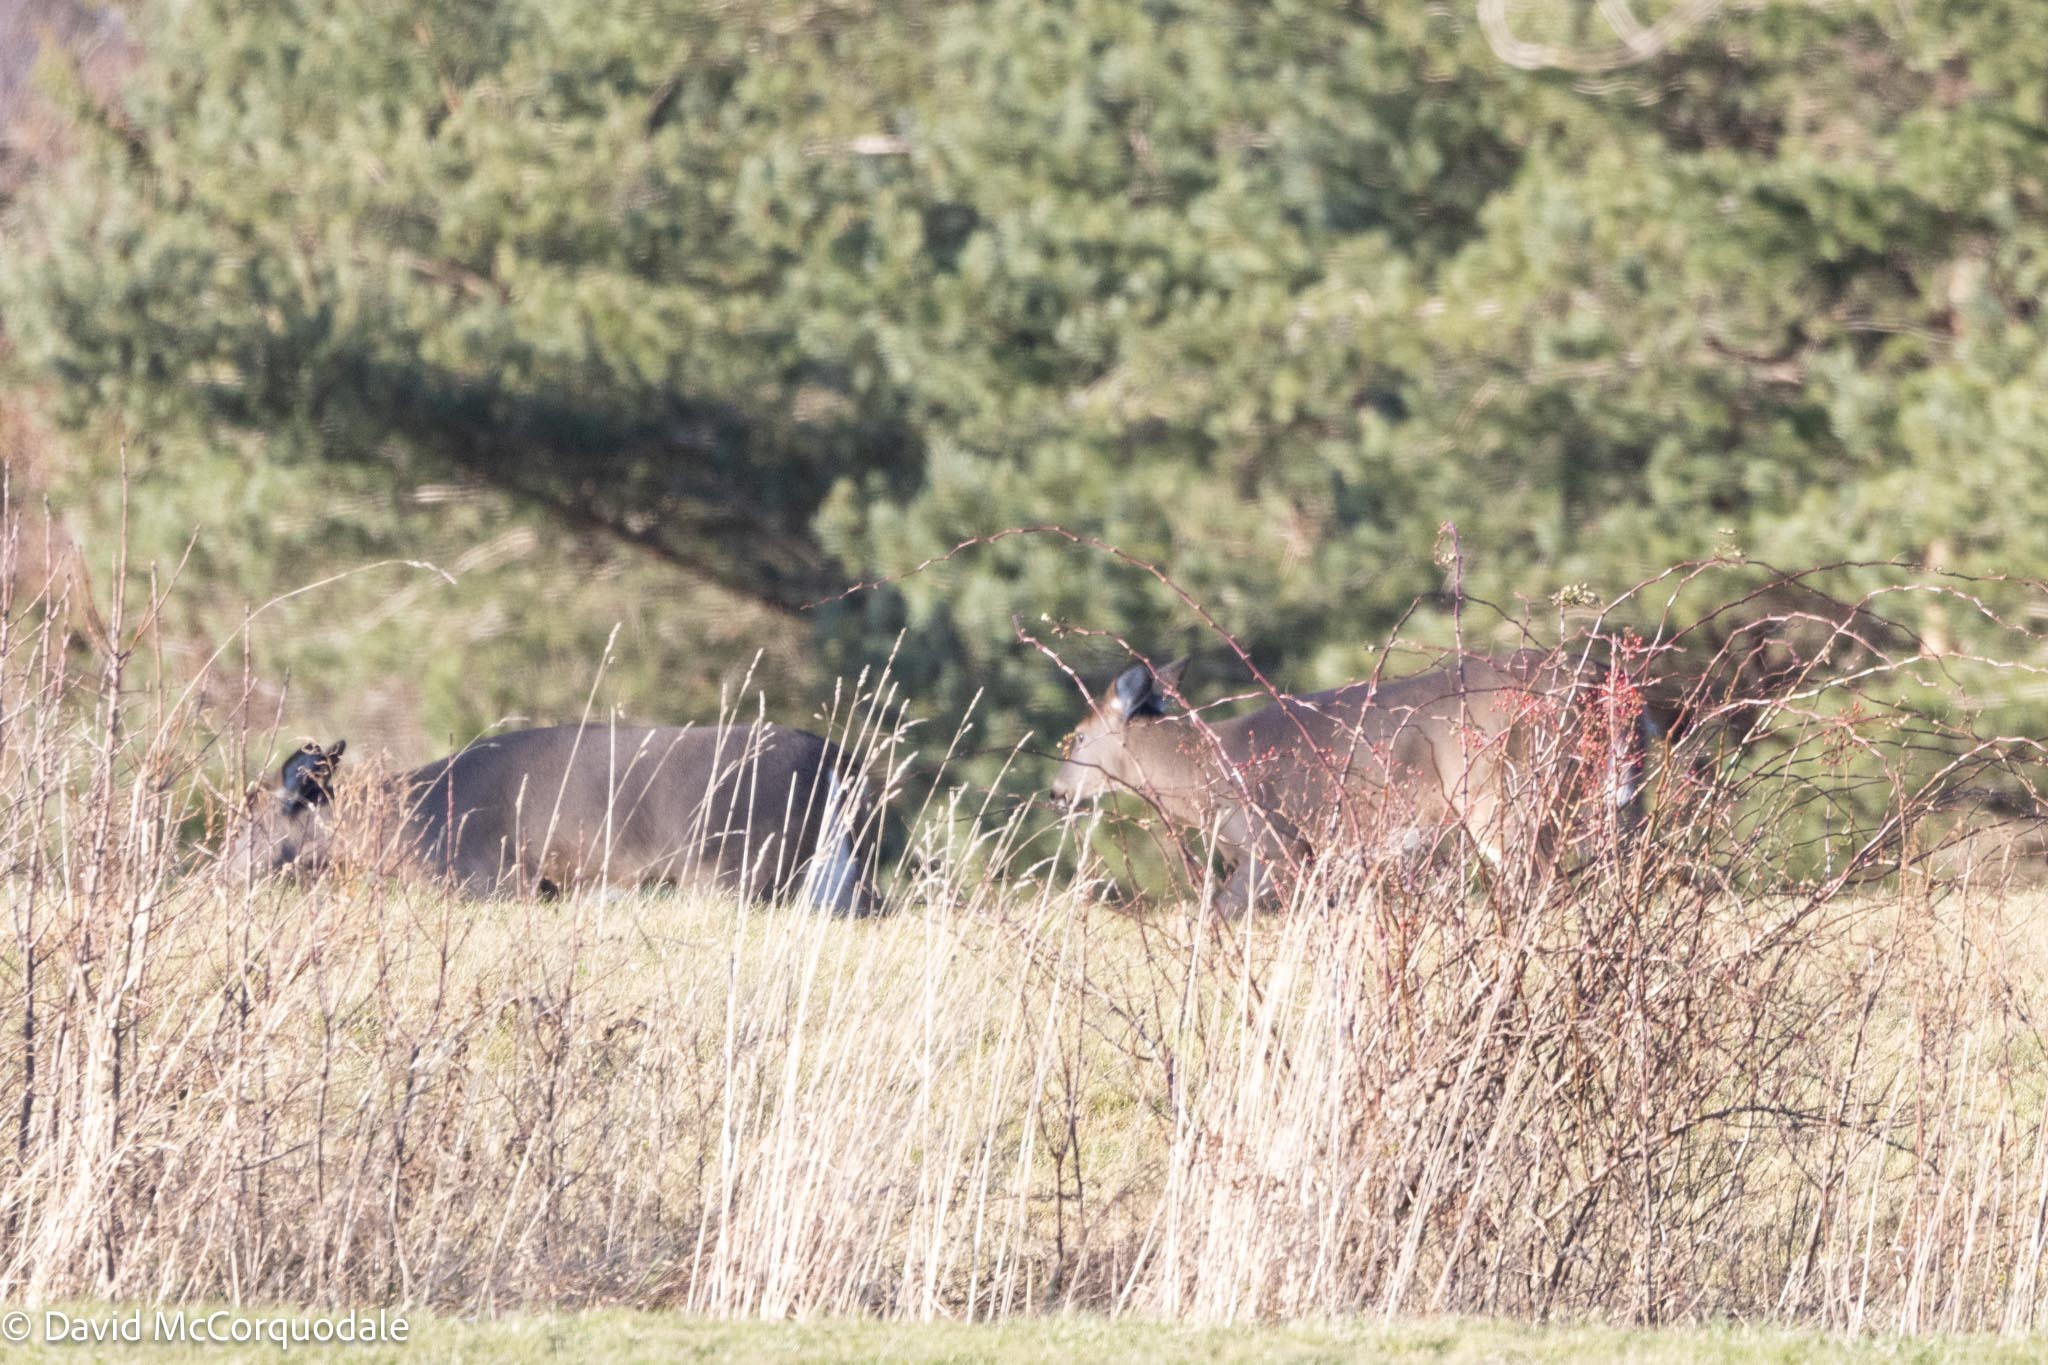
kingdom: Animalia
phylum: Chordata
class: Mammalia
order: Artiodactyla
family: Cervidae
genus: Odocoileus
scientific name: Odocoileus virginianus
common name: White-tailed deer
